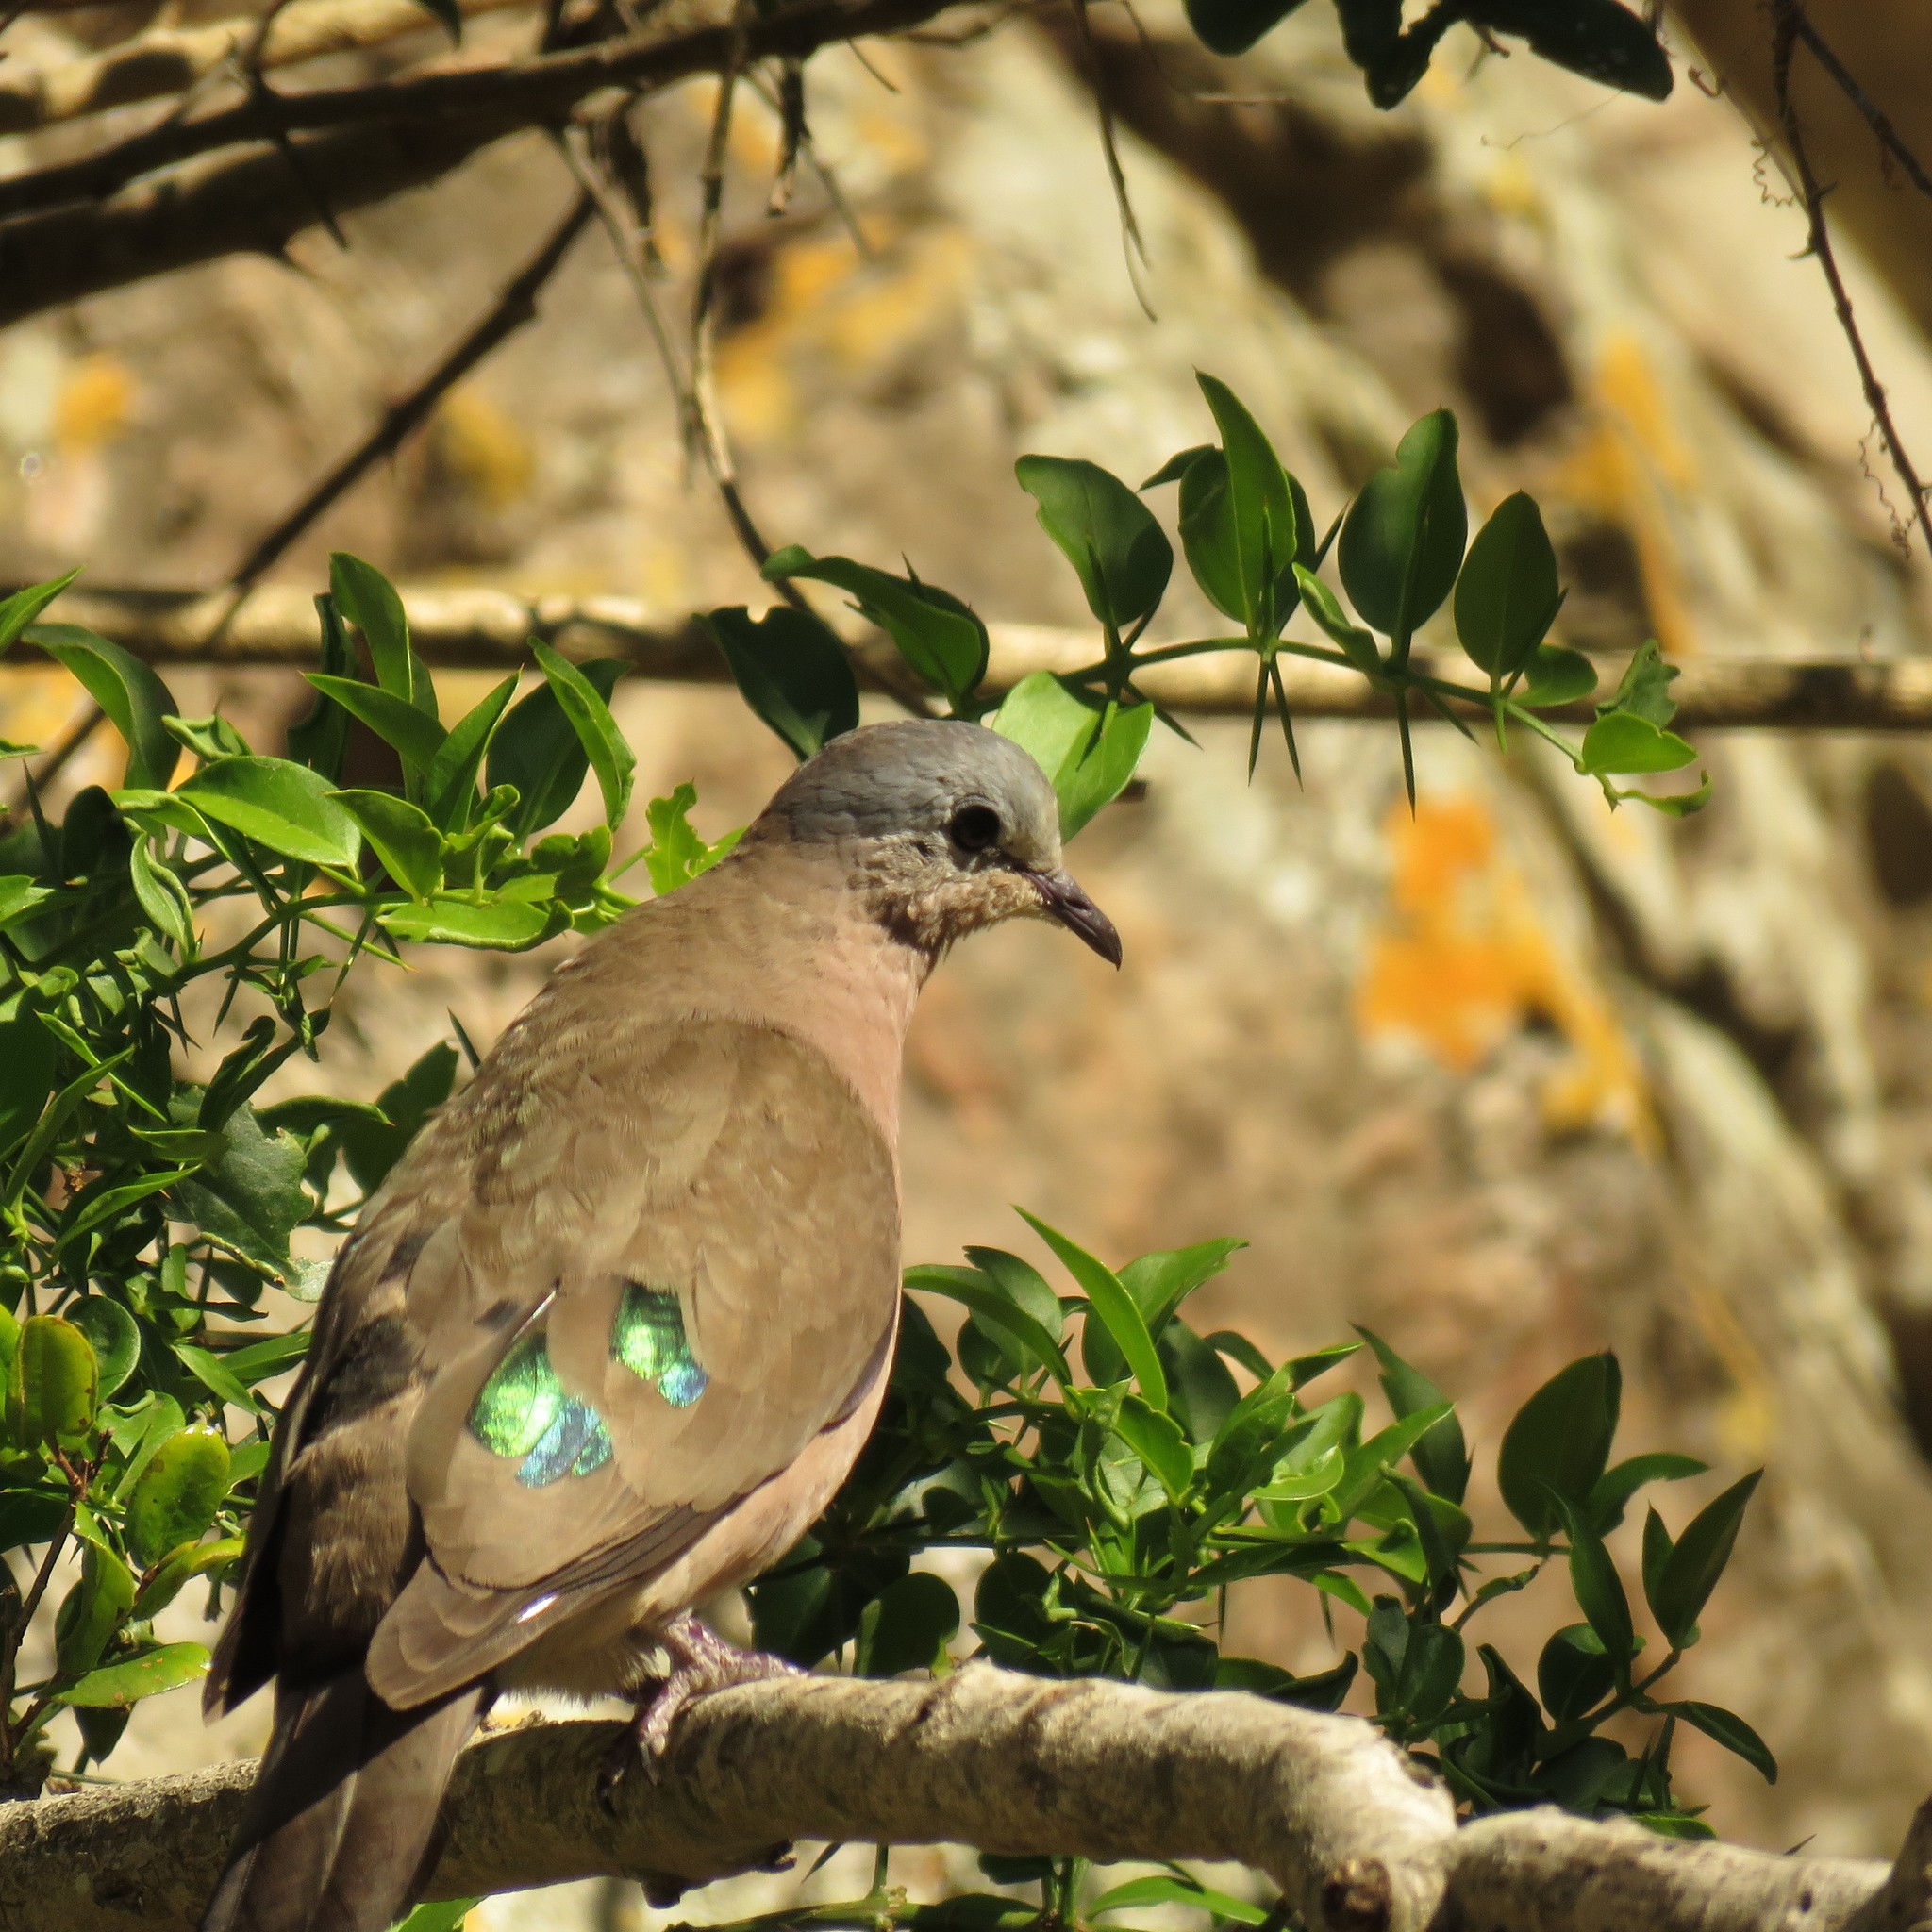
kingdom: Animalia
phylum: Chordata
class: Aves
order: Columbiformes
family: Columbidae
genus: Turtur
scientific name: Turtur chalcospilos
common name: Emerald-spotted wood dove
